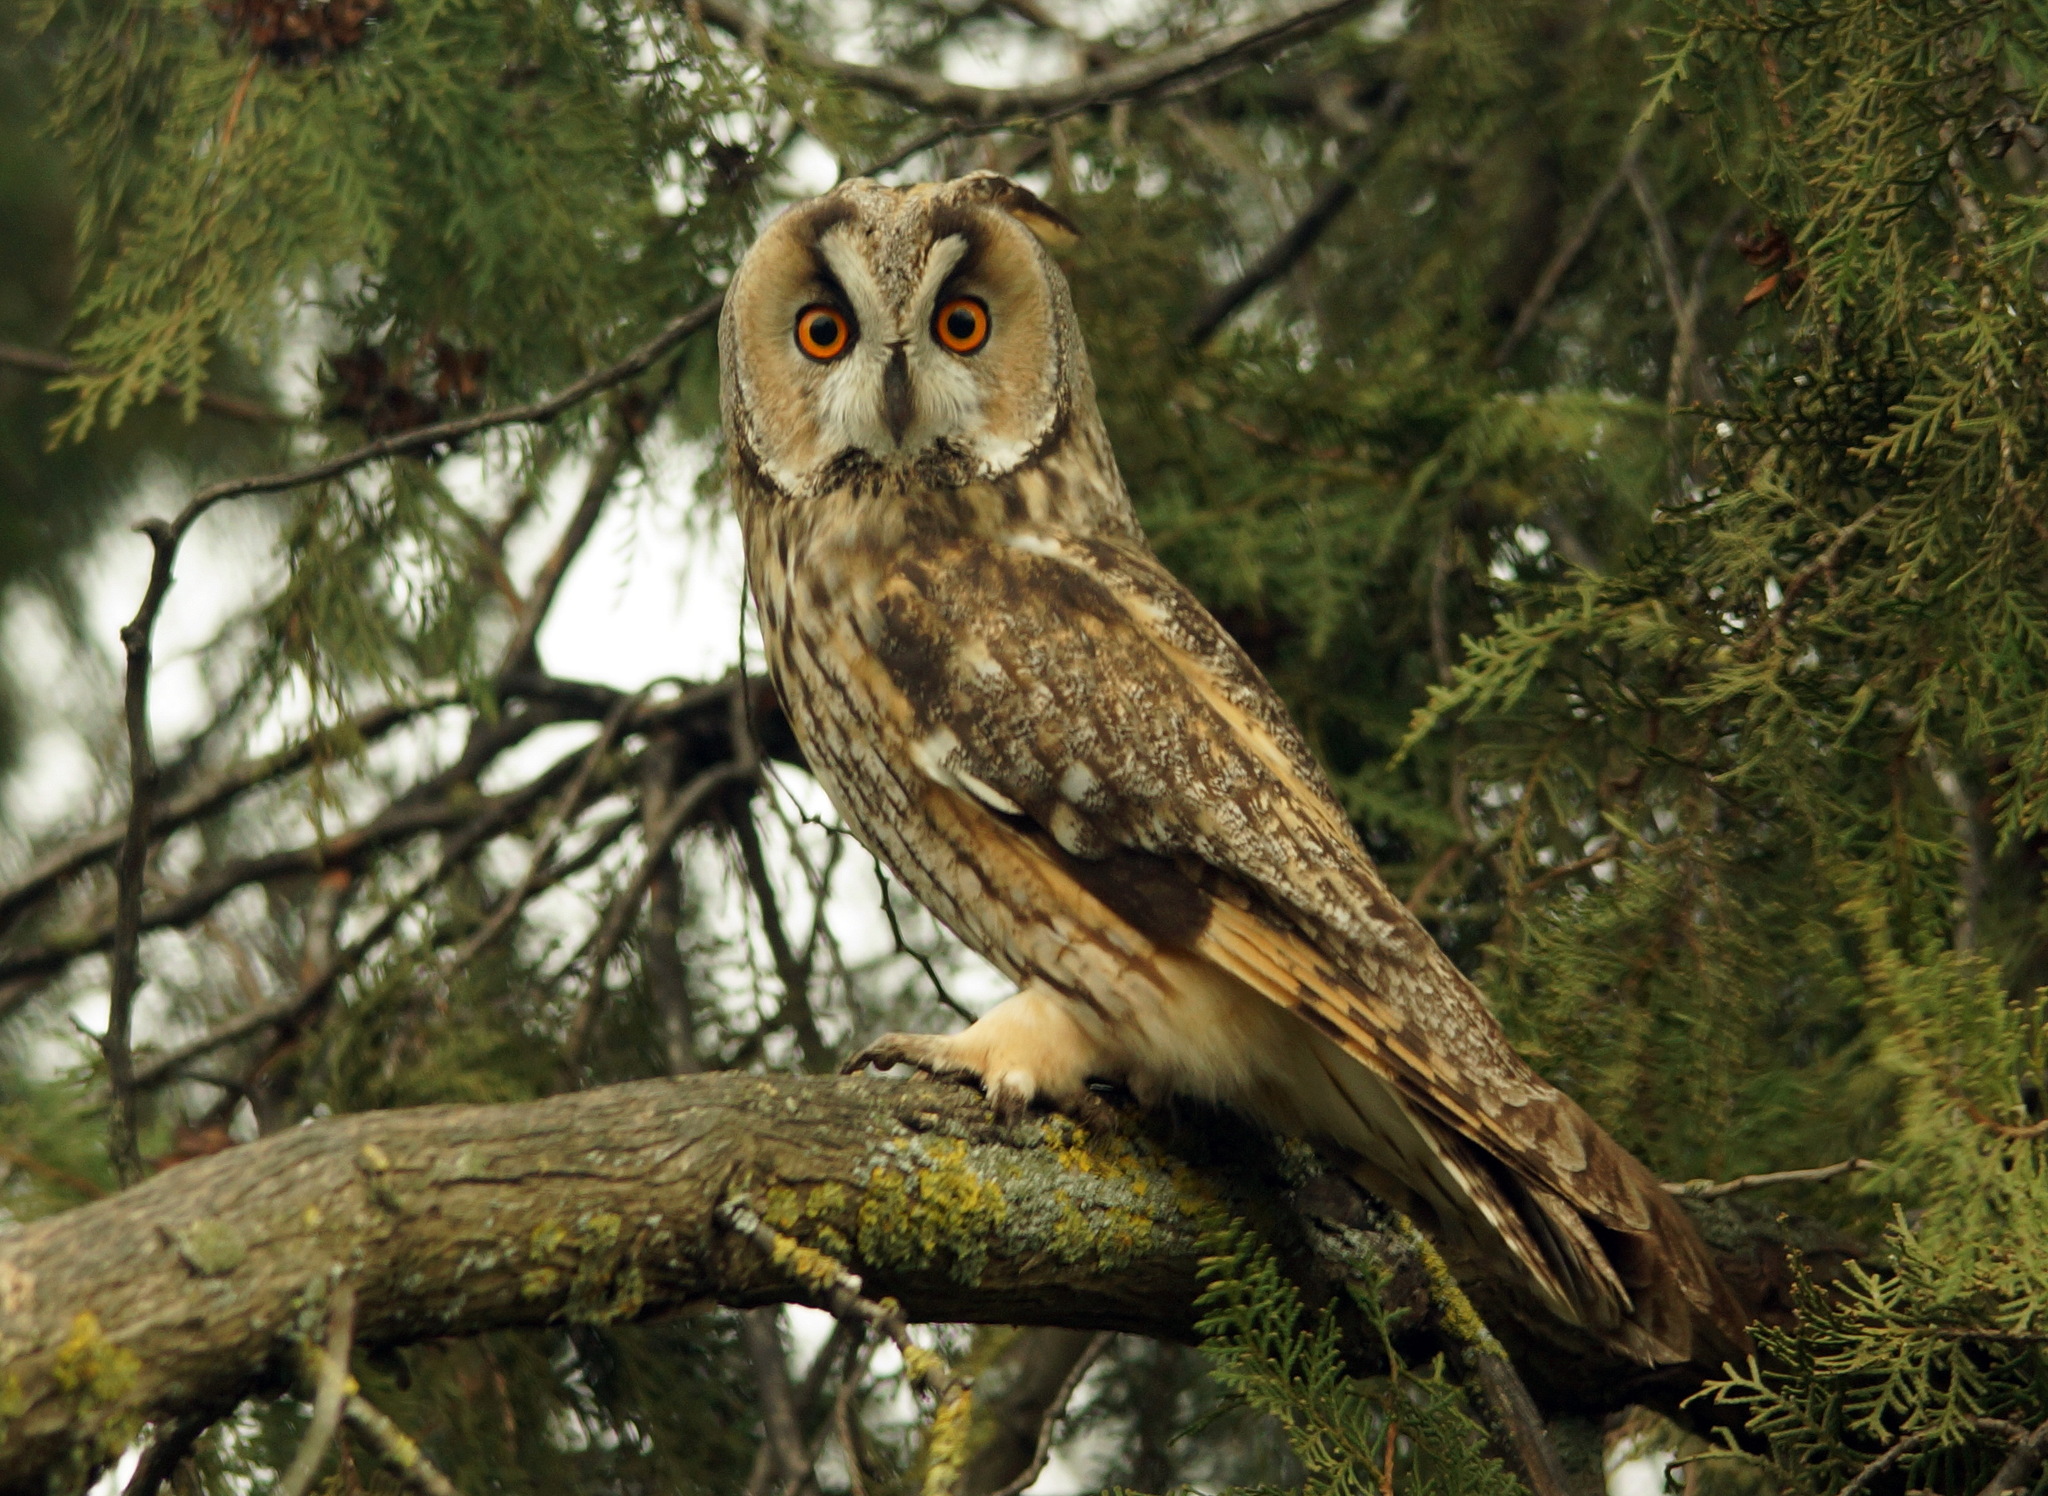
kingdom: Animalia
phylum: Chordata
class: Aves
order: Strigiformes
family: Strigidae
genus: Asio
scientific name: Asio otus
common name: Long-eared owl
